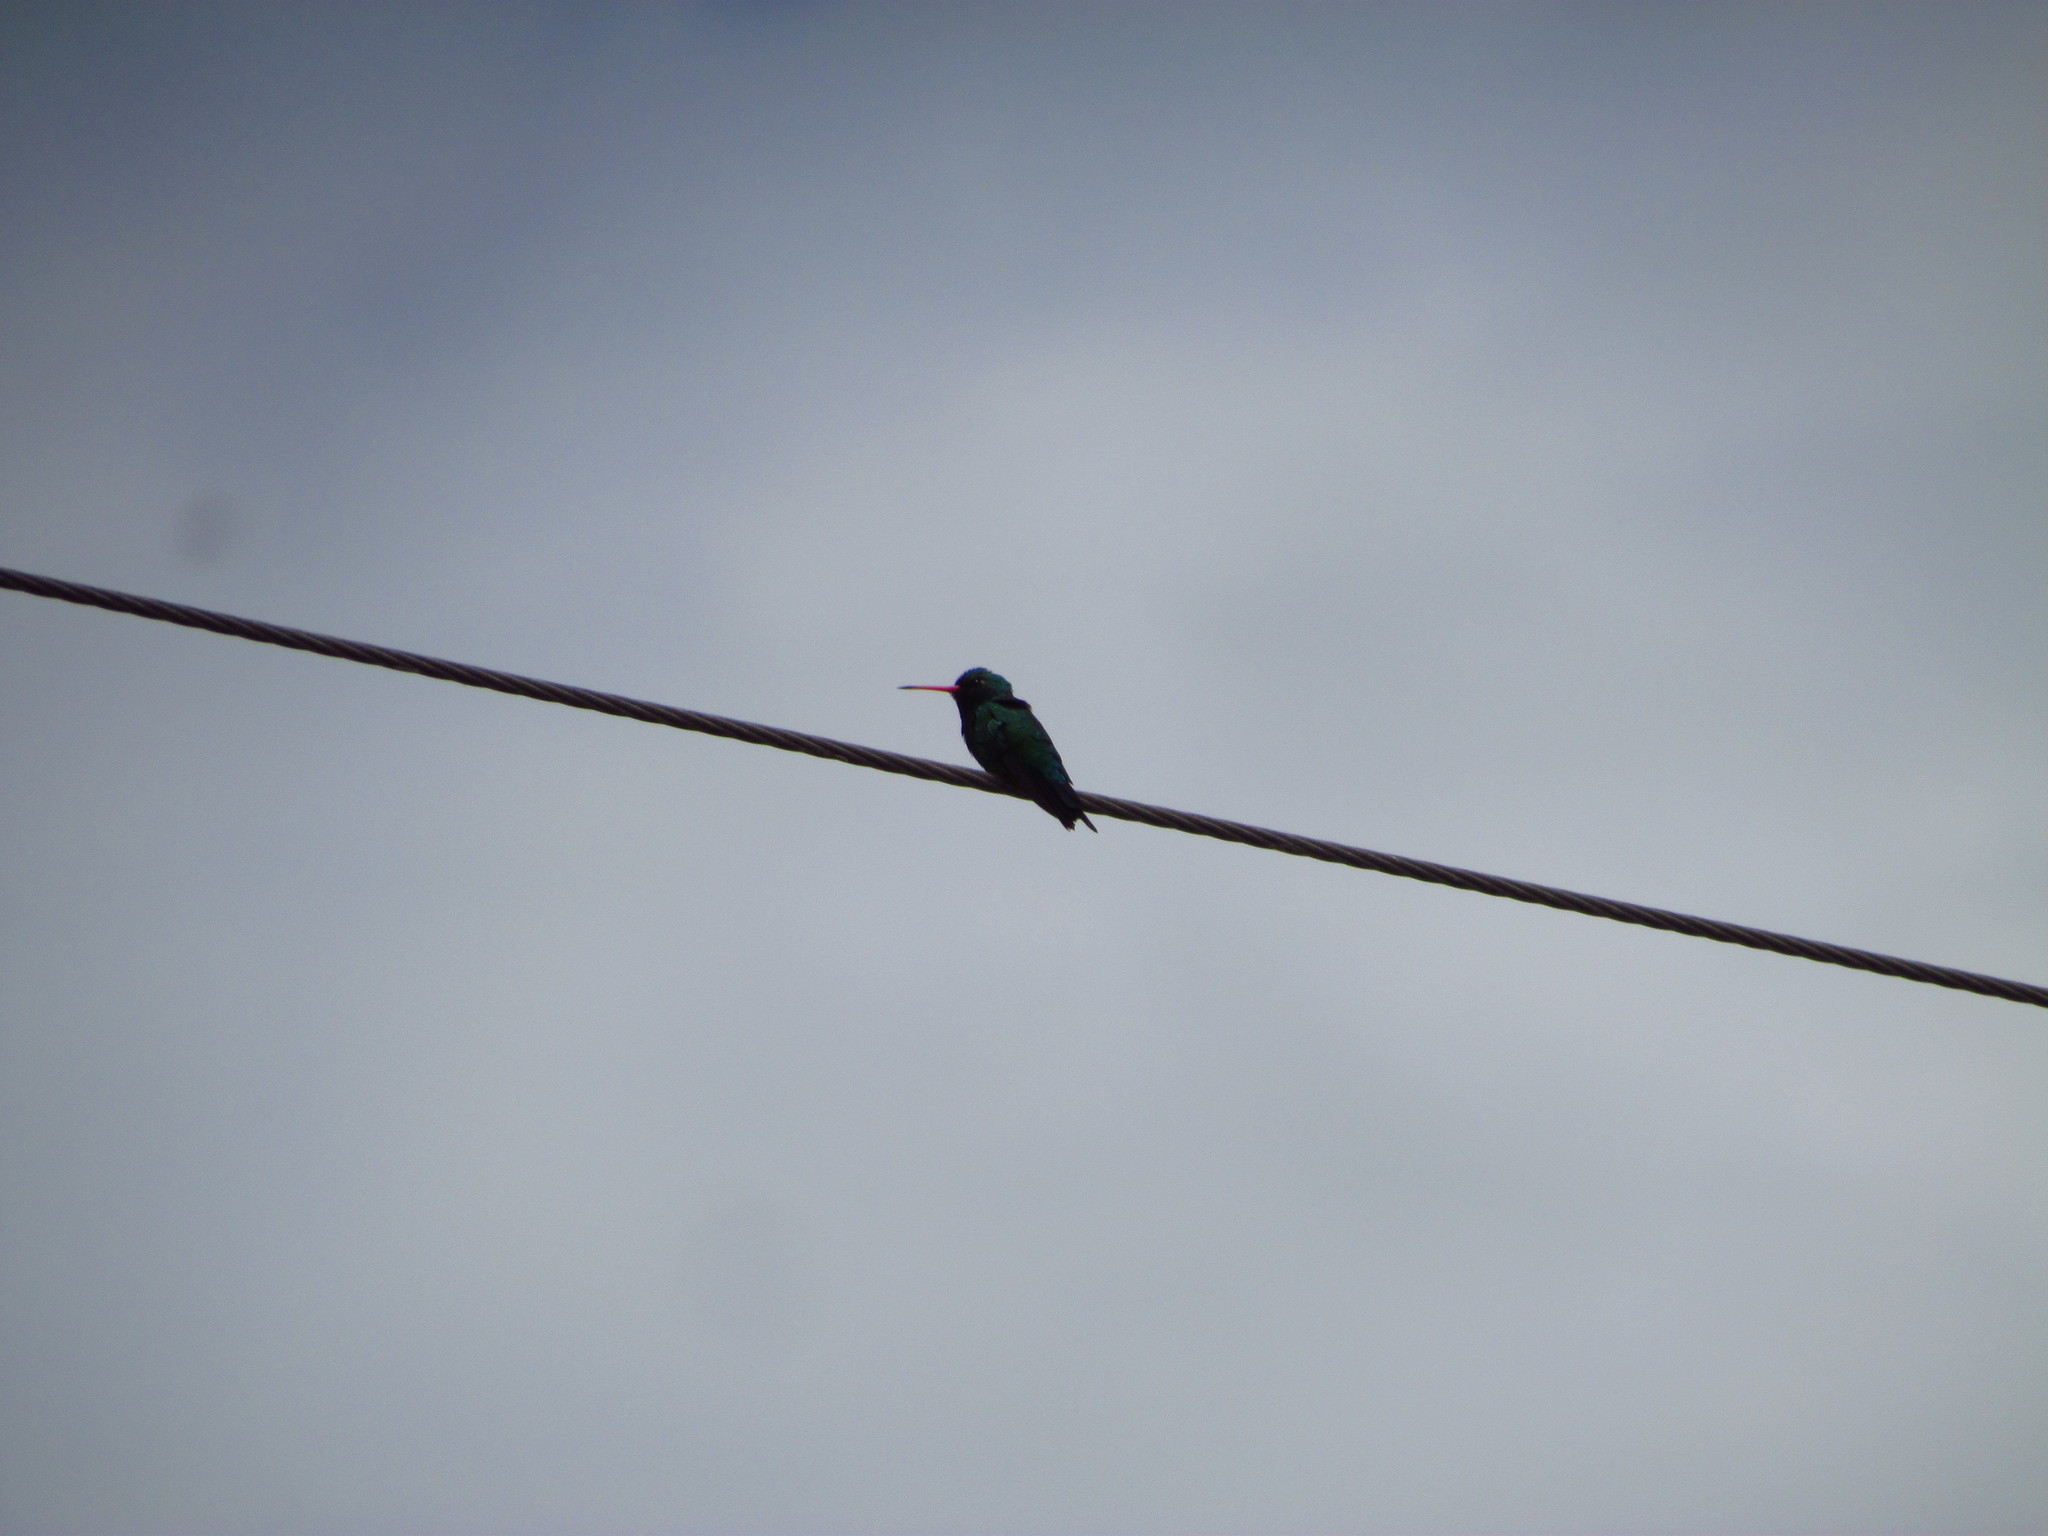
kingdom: Animalia
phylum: Chordata
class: Aves
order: Apodiformes
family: Trochilidae
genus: Chlorostilbon
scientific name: Chlorostilbon lucidus
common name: Glittering-bellied emerald
